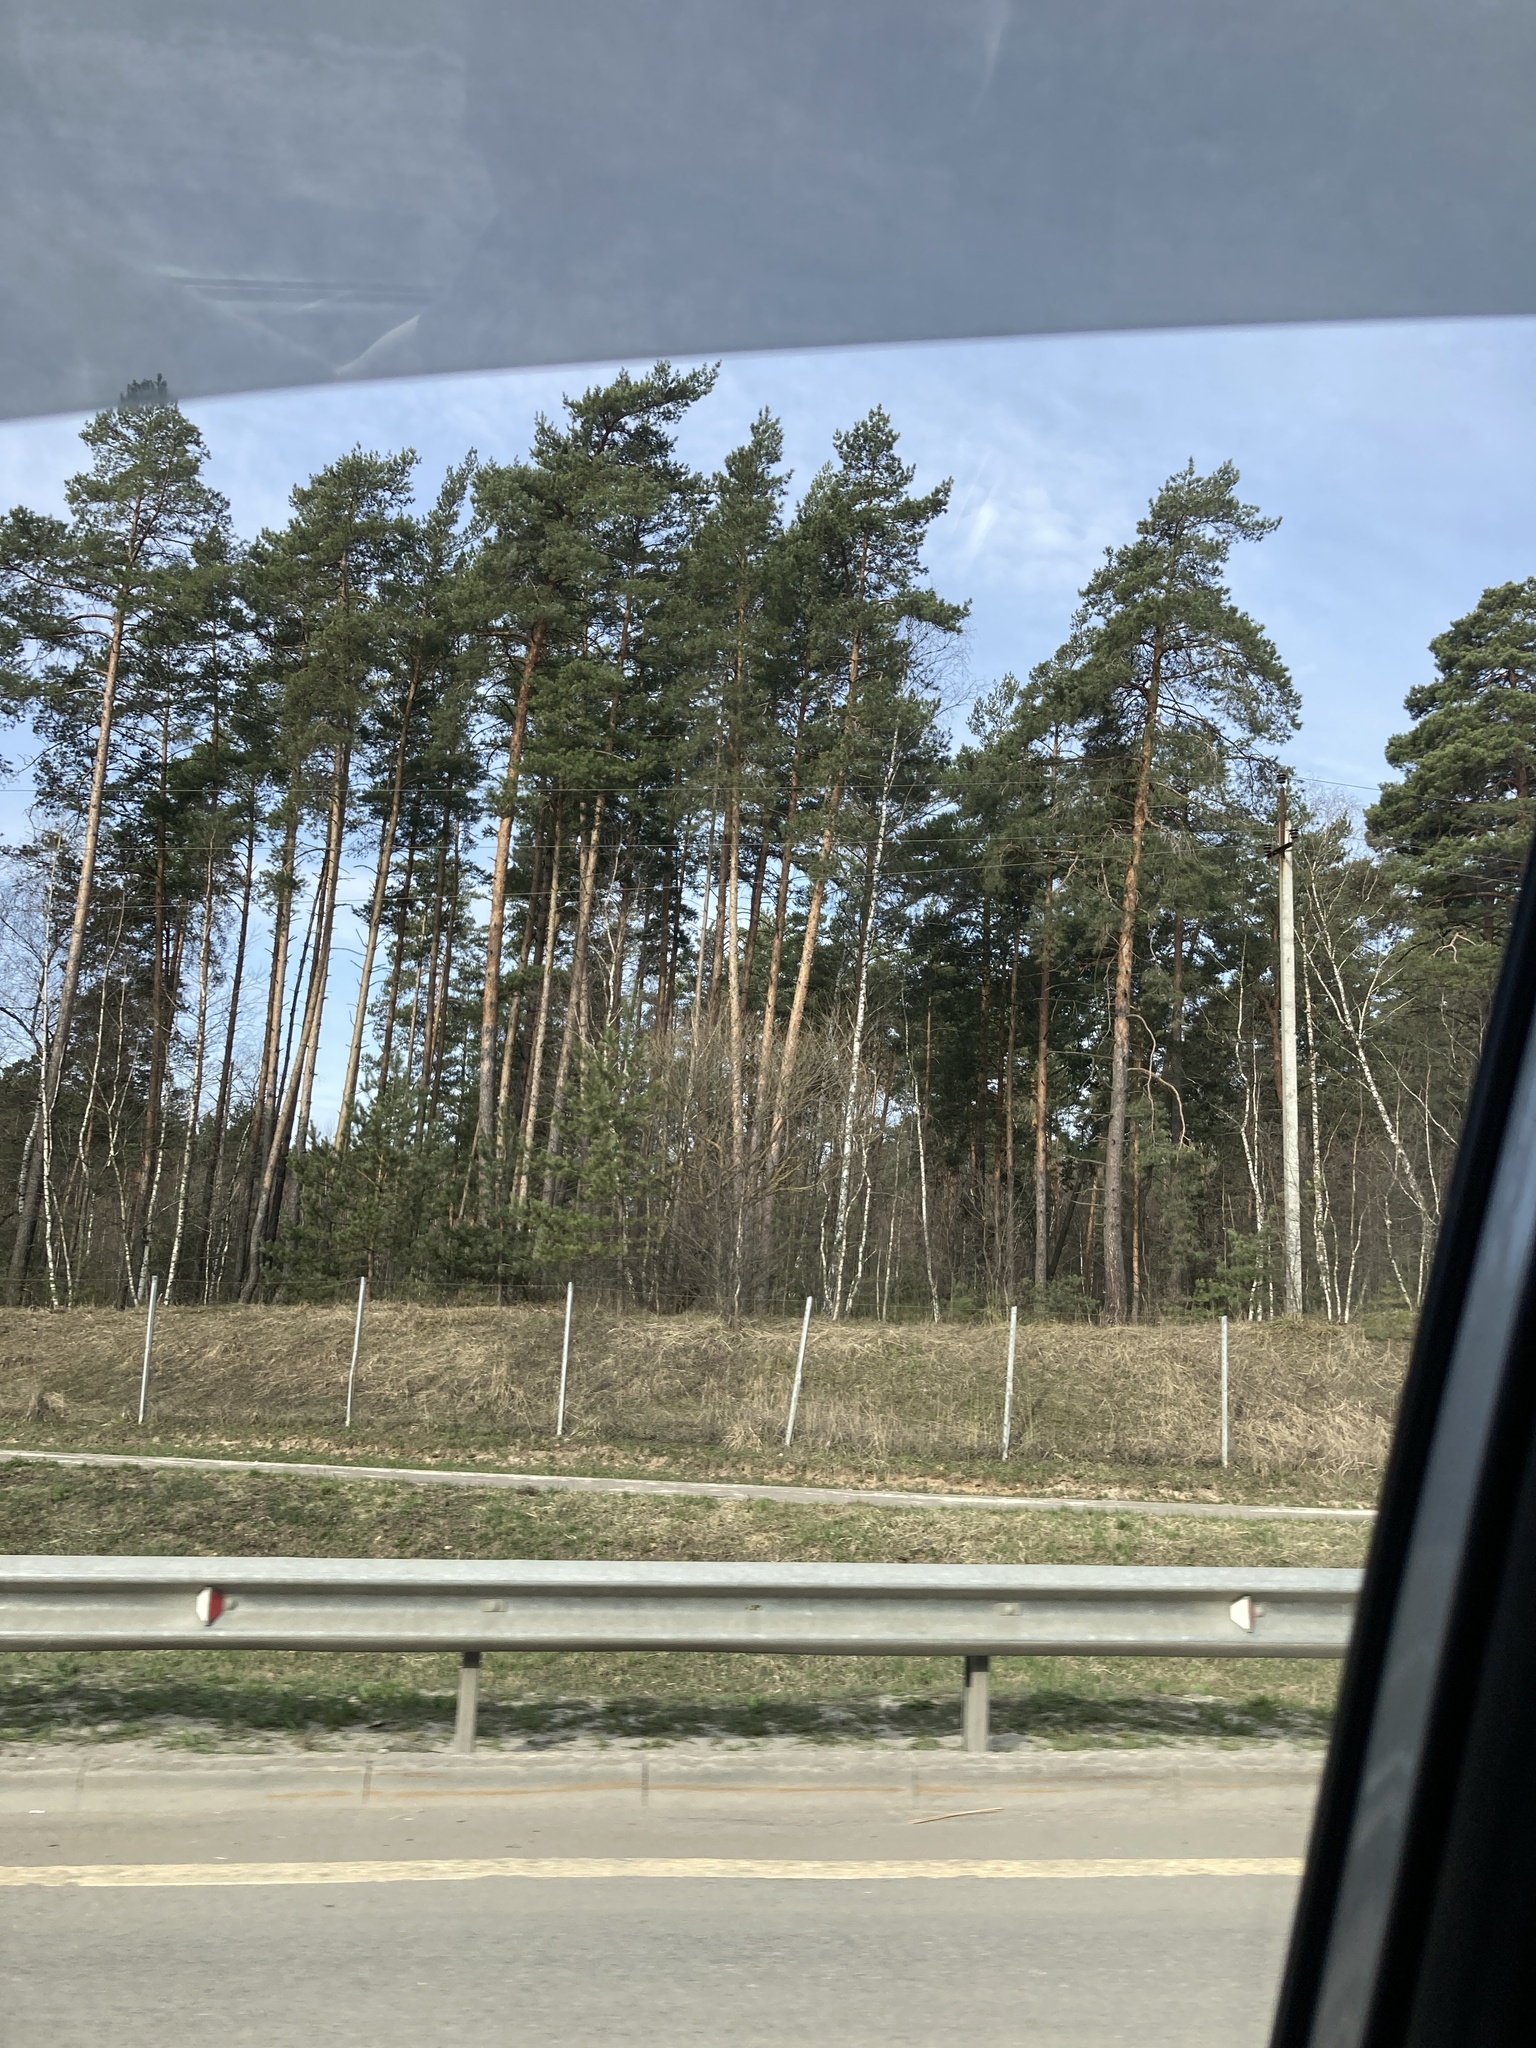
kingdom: Plantae
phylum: Tracheophyta
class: Pinopsida
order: Pinales
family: Pinaceae
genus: Pinus
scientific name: Pinus sylvestris
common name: Scots pine
